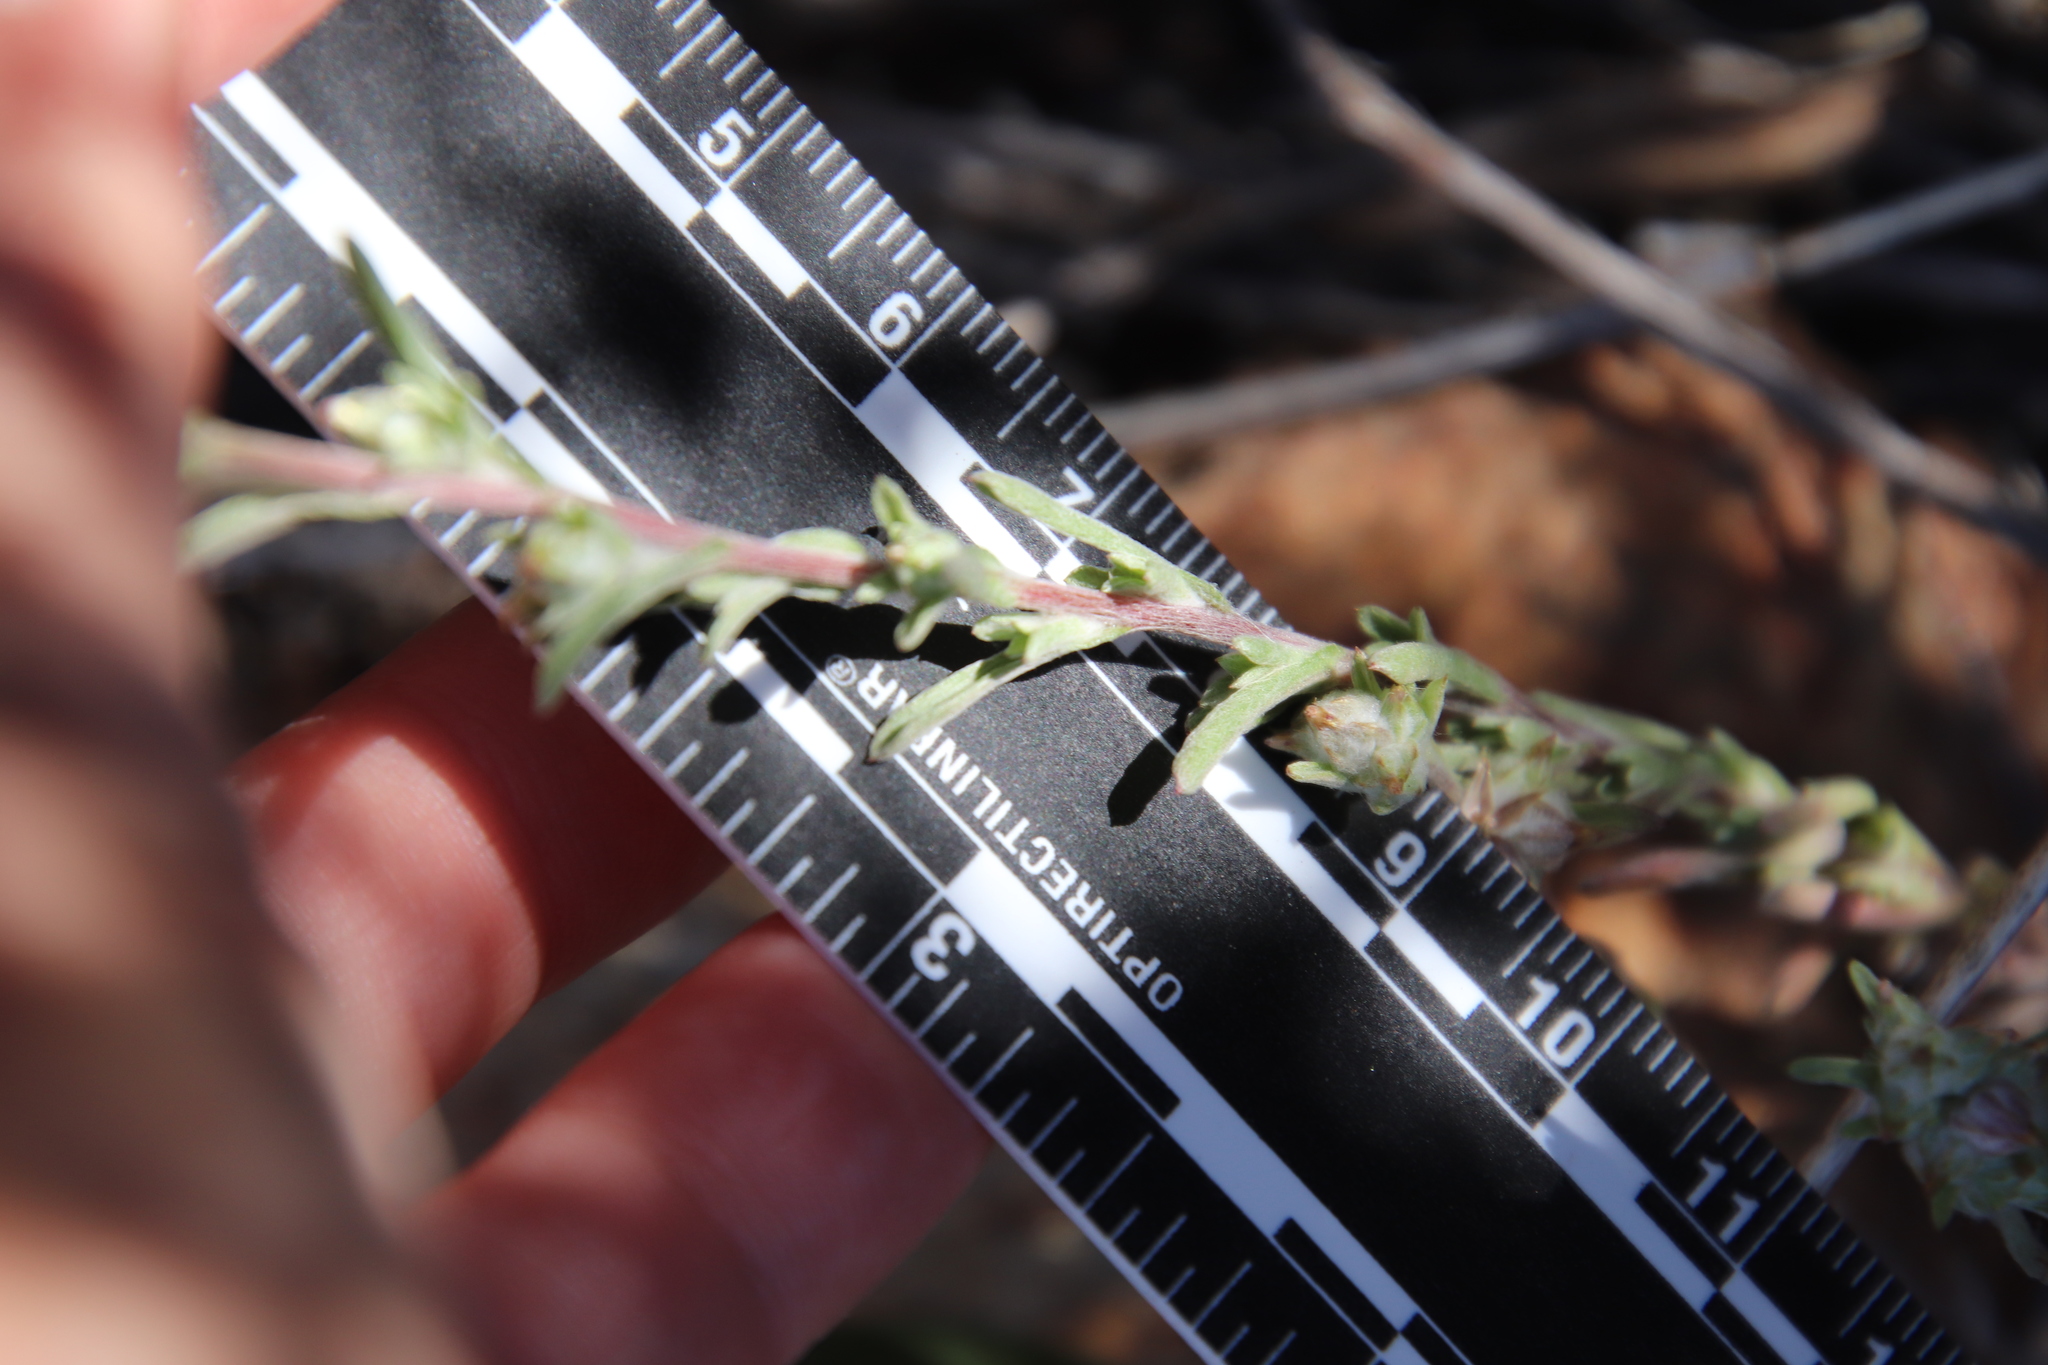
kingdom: Plantae
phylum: Tracheophyta
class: Magnoliopsida
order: Asterales
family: Asteraceae
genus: Logfia
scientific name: Logfia californica
